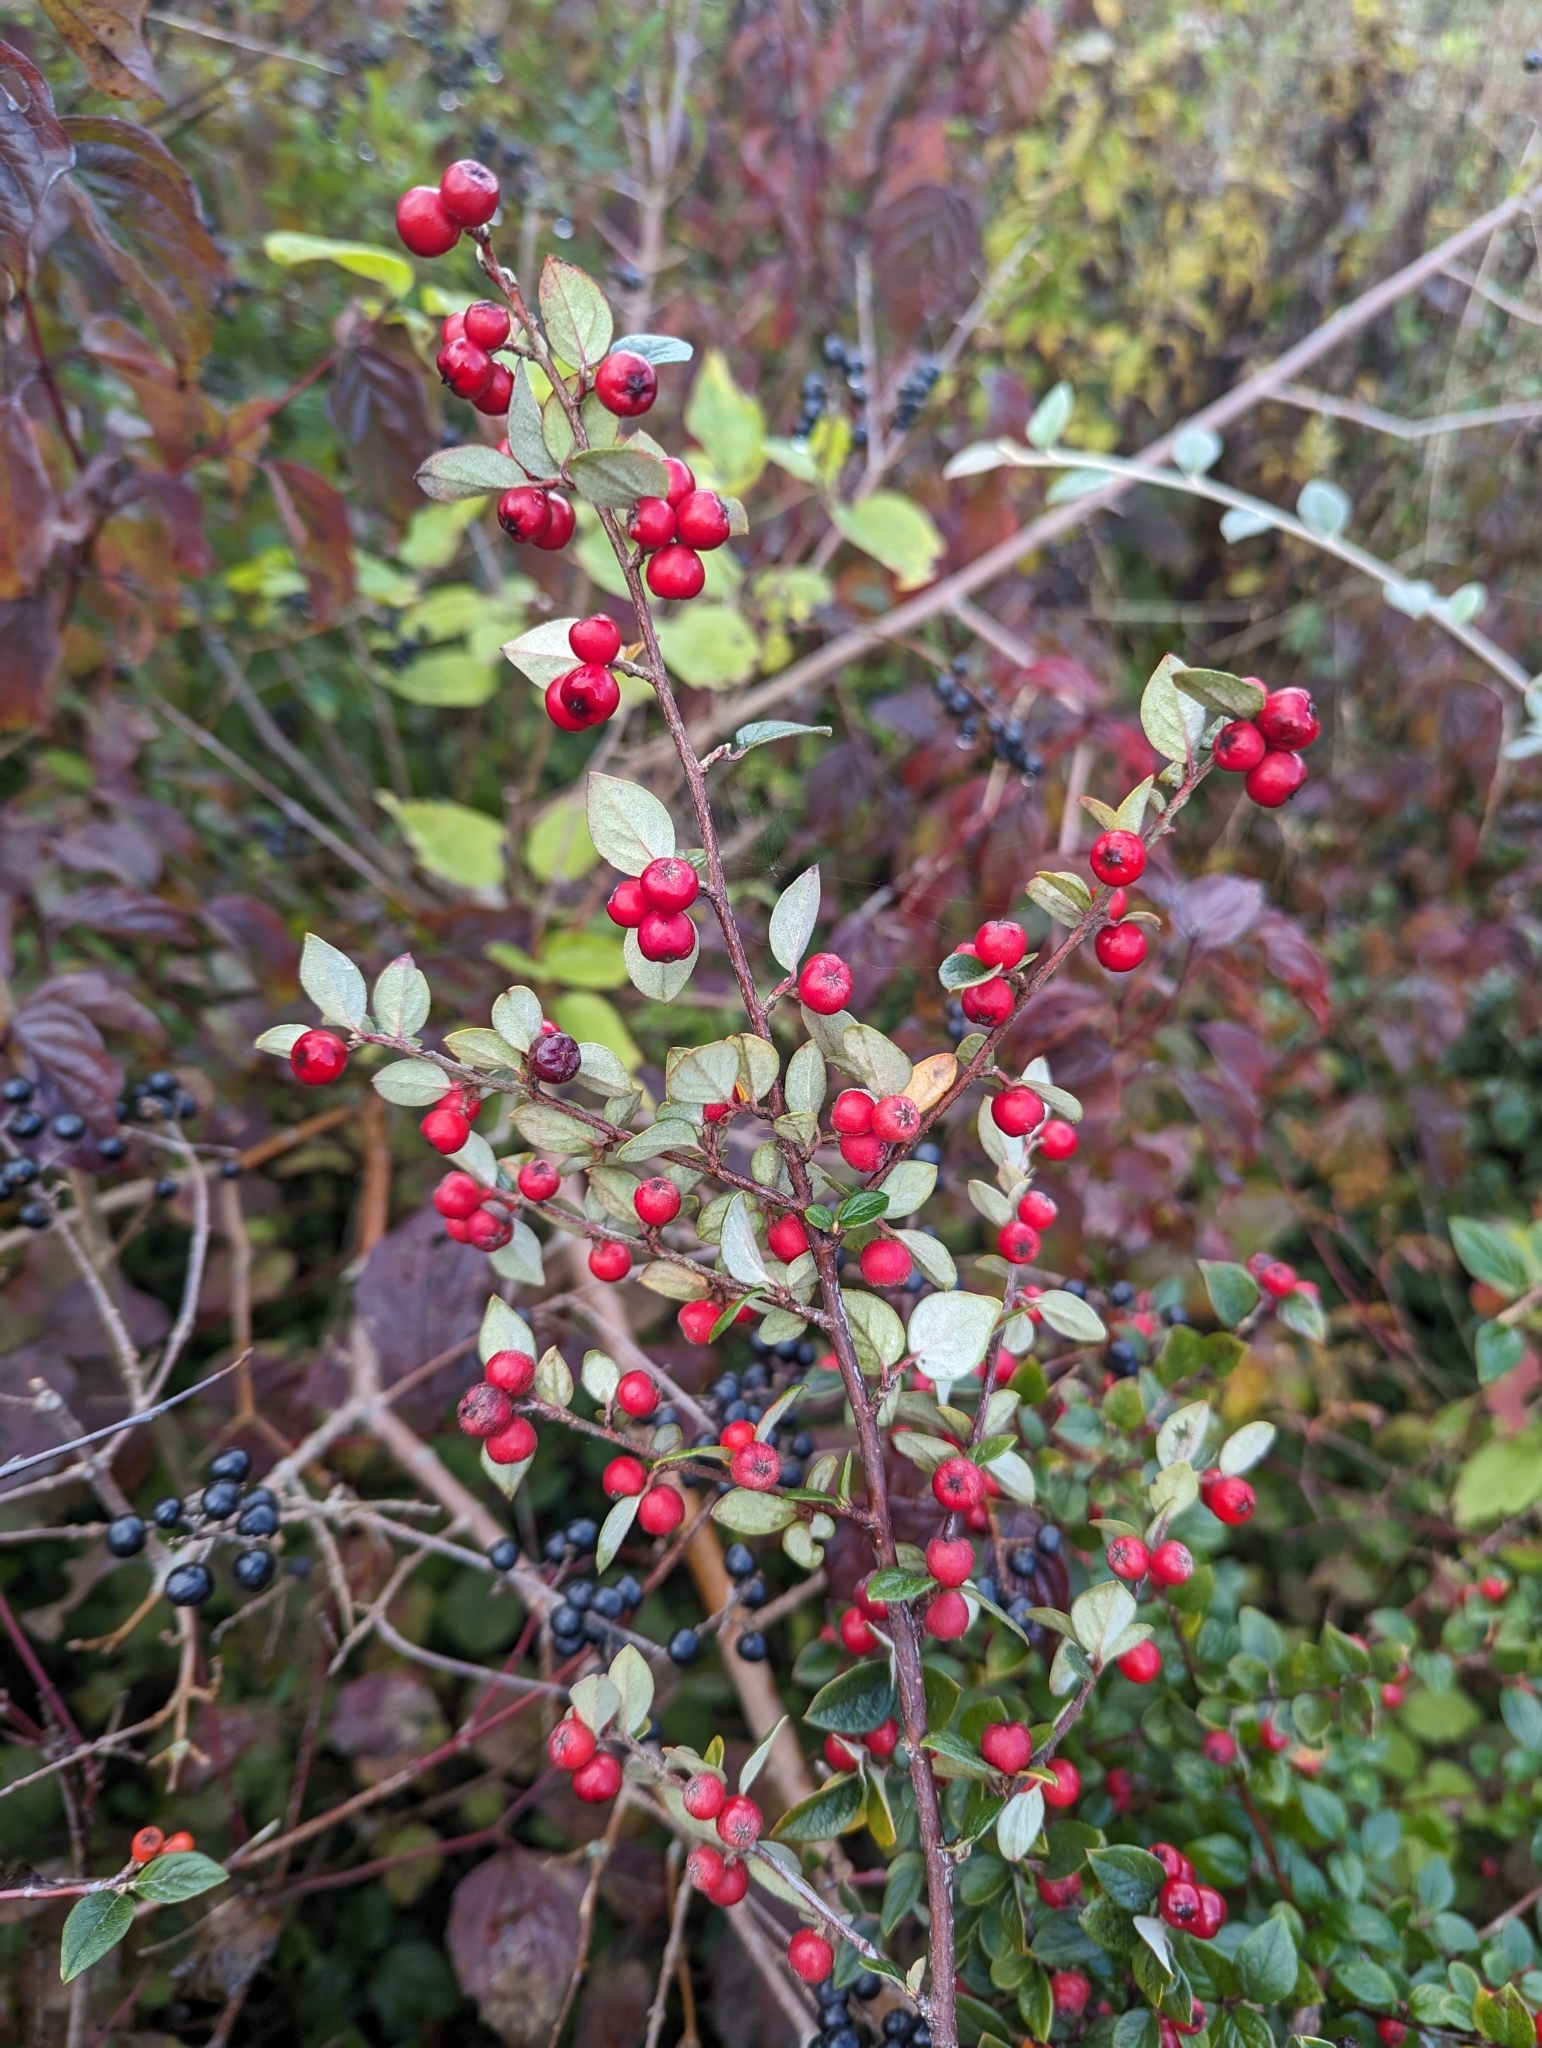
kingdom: Plantae
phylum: Tracheophyta
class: Magnoliopsida
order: Rosales
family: Rosaceae
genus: Cotoneaster
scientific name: Cotoneaster dielsianus
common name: Diels's cotoneaster
